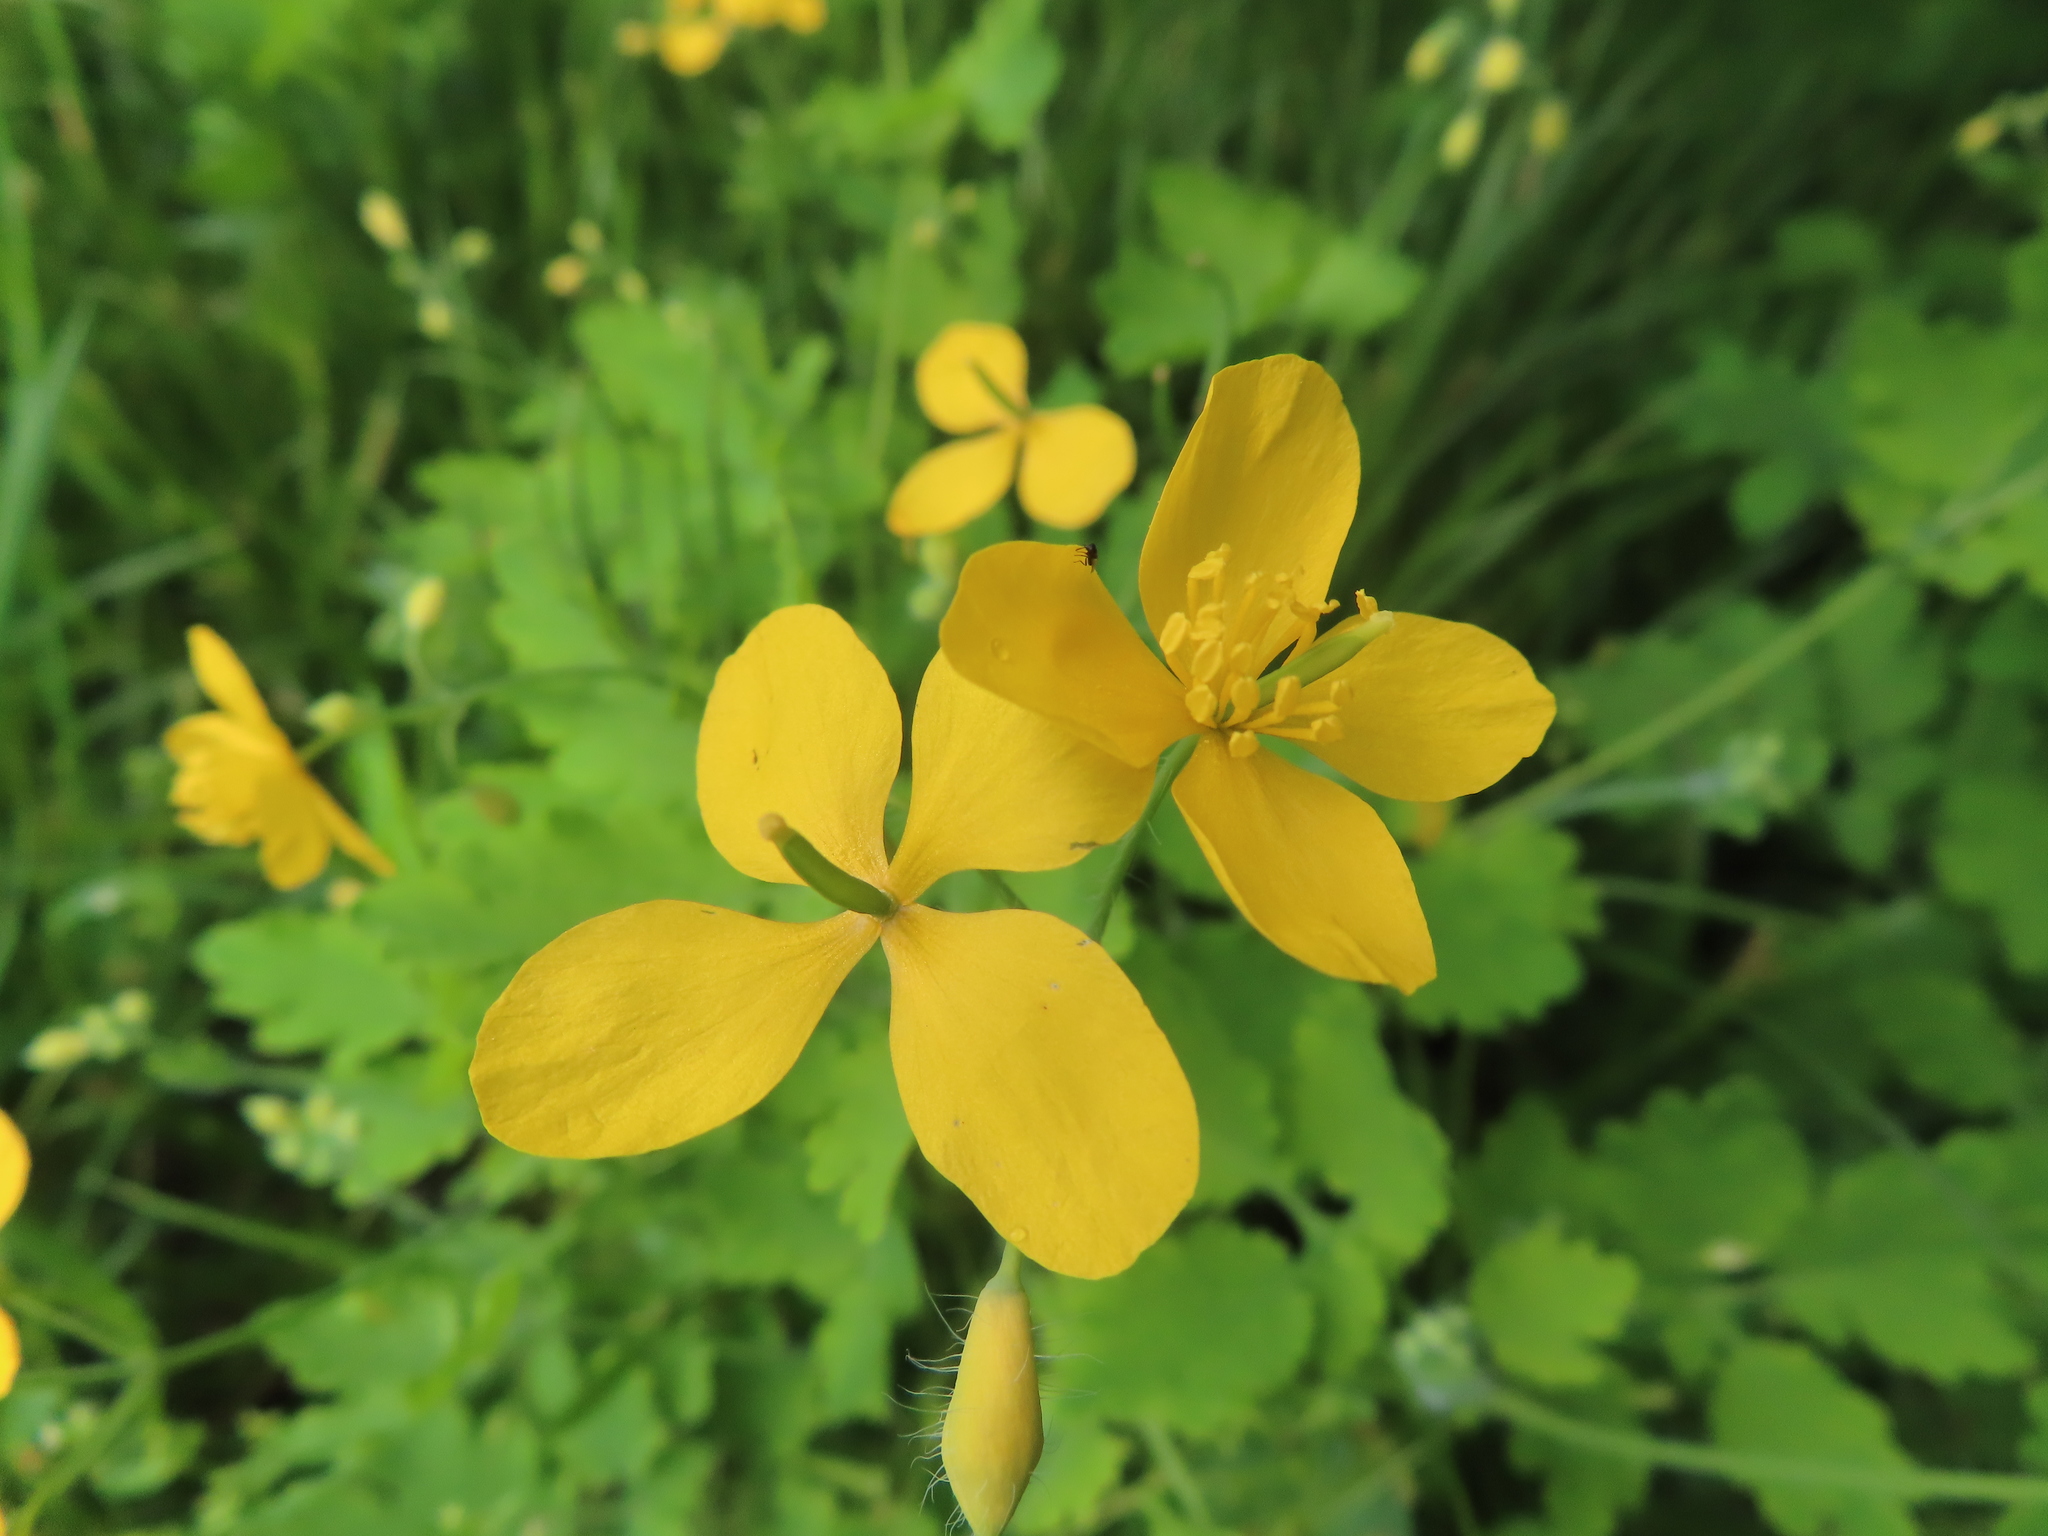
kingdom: Plantae
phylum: Tracheophyta
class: Magnoliopsida
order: Ranunculales
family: Papaveraceae
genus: Chelidonium
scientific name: Chelidonium majus
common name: Greater celandine
